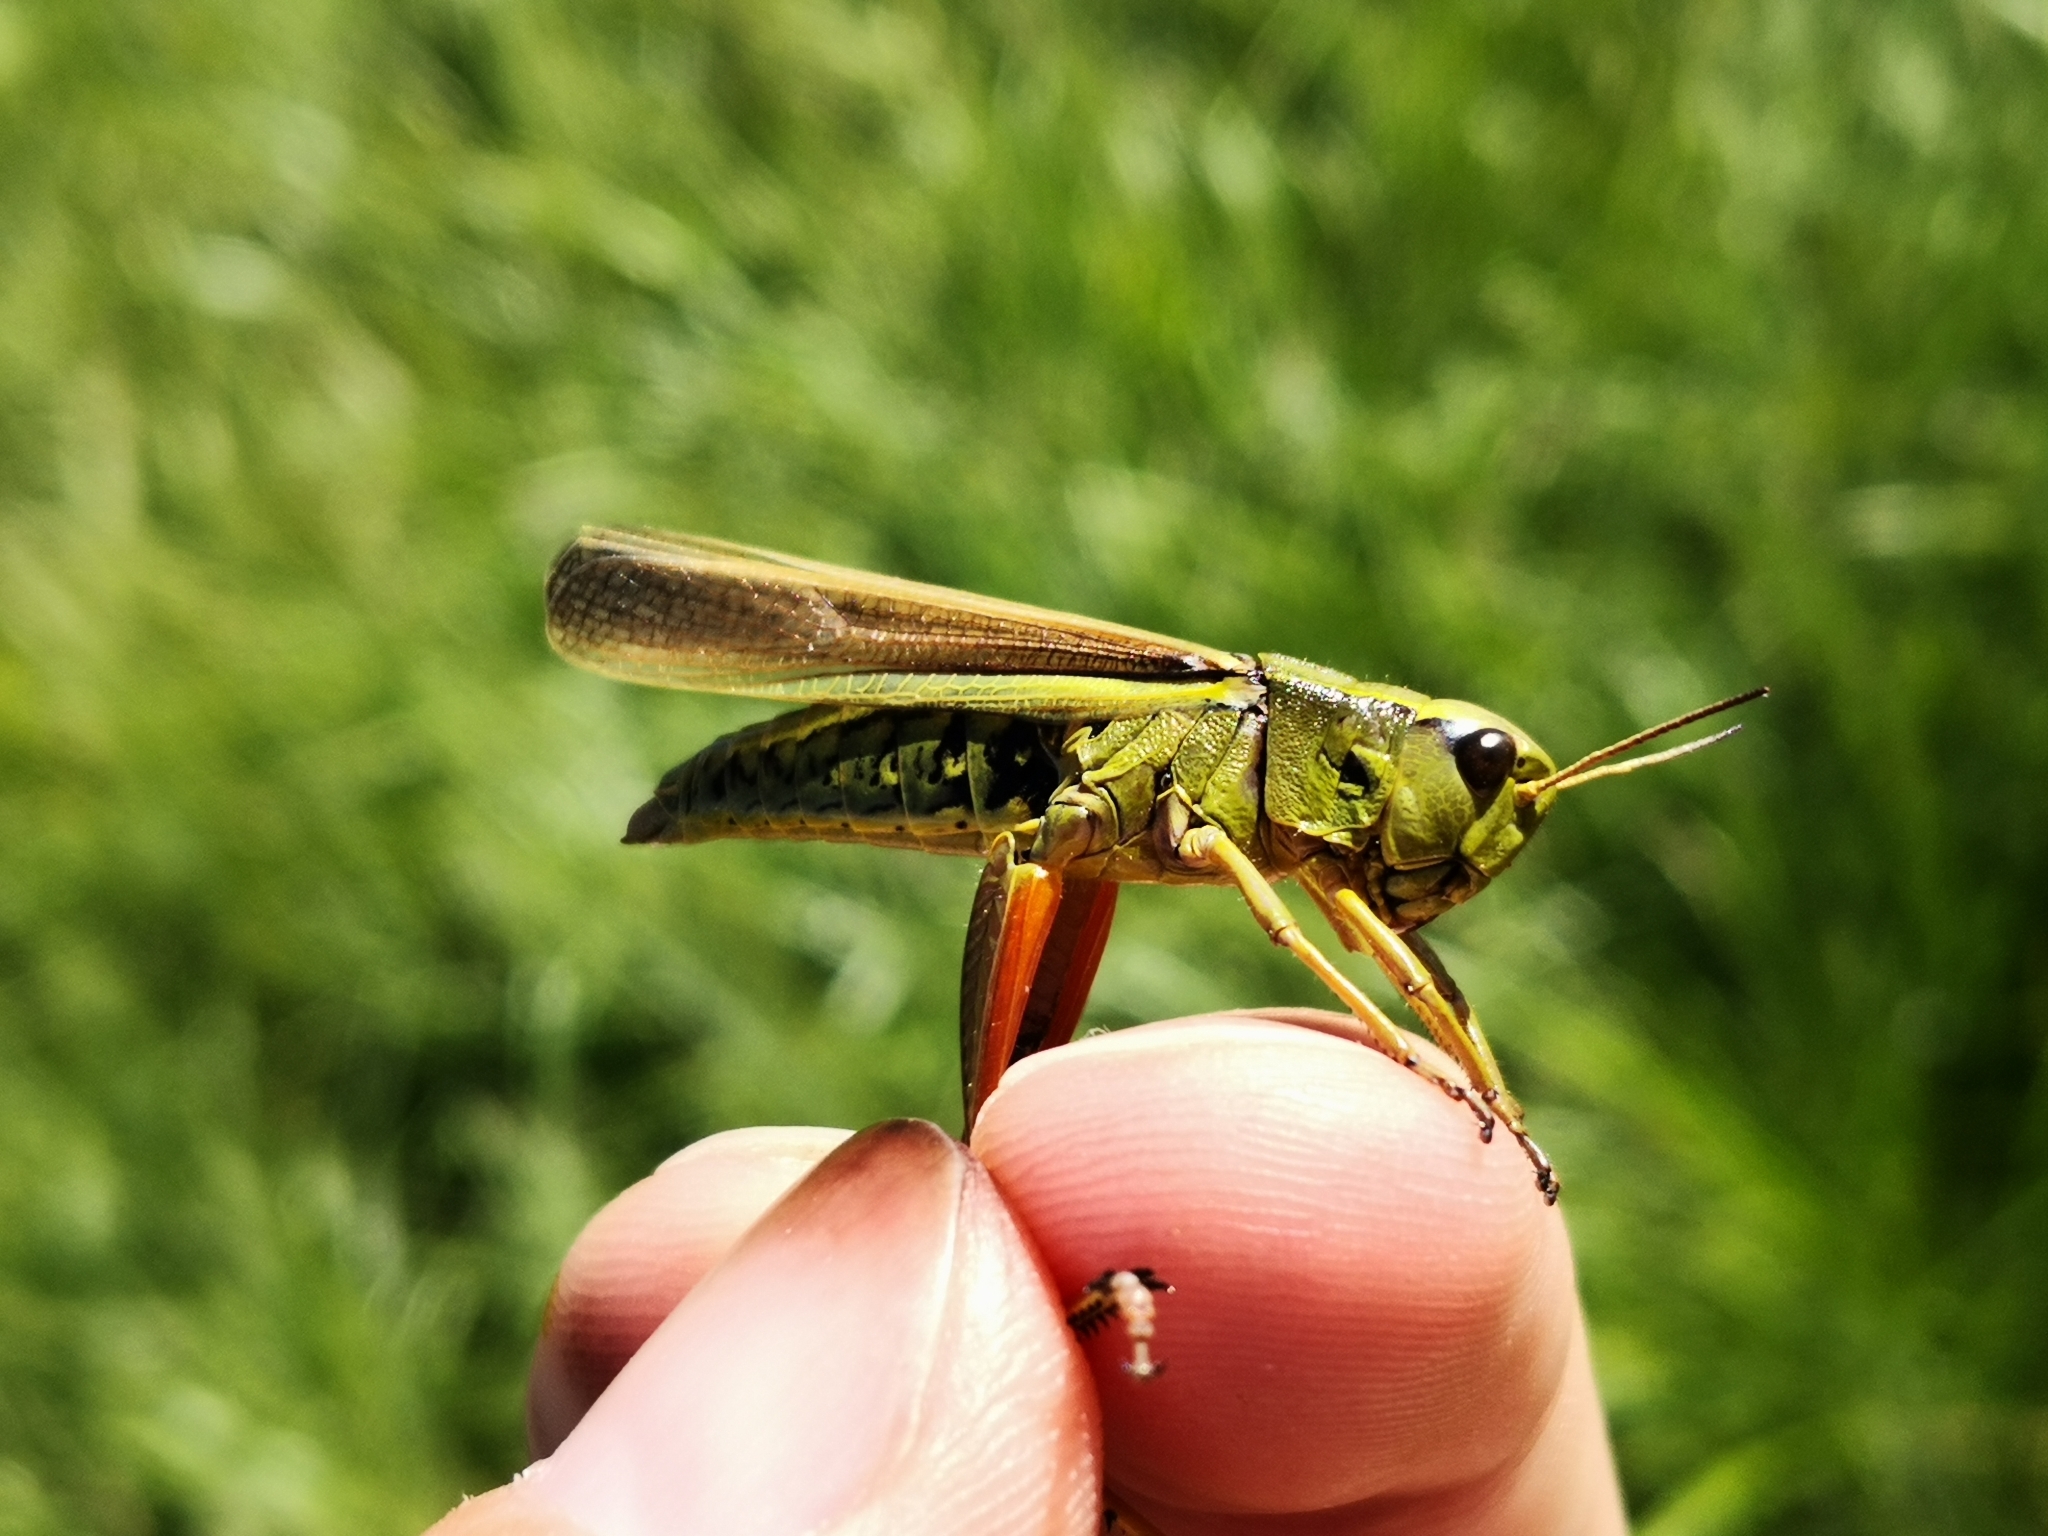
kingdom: Animalia
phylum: Arthropoda
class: Insecta
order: Orthoptera
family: Acrididae
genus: Stethophyma
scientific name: Stethophyma grossum
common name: Large marsh grasshopper
